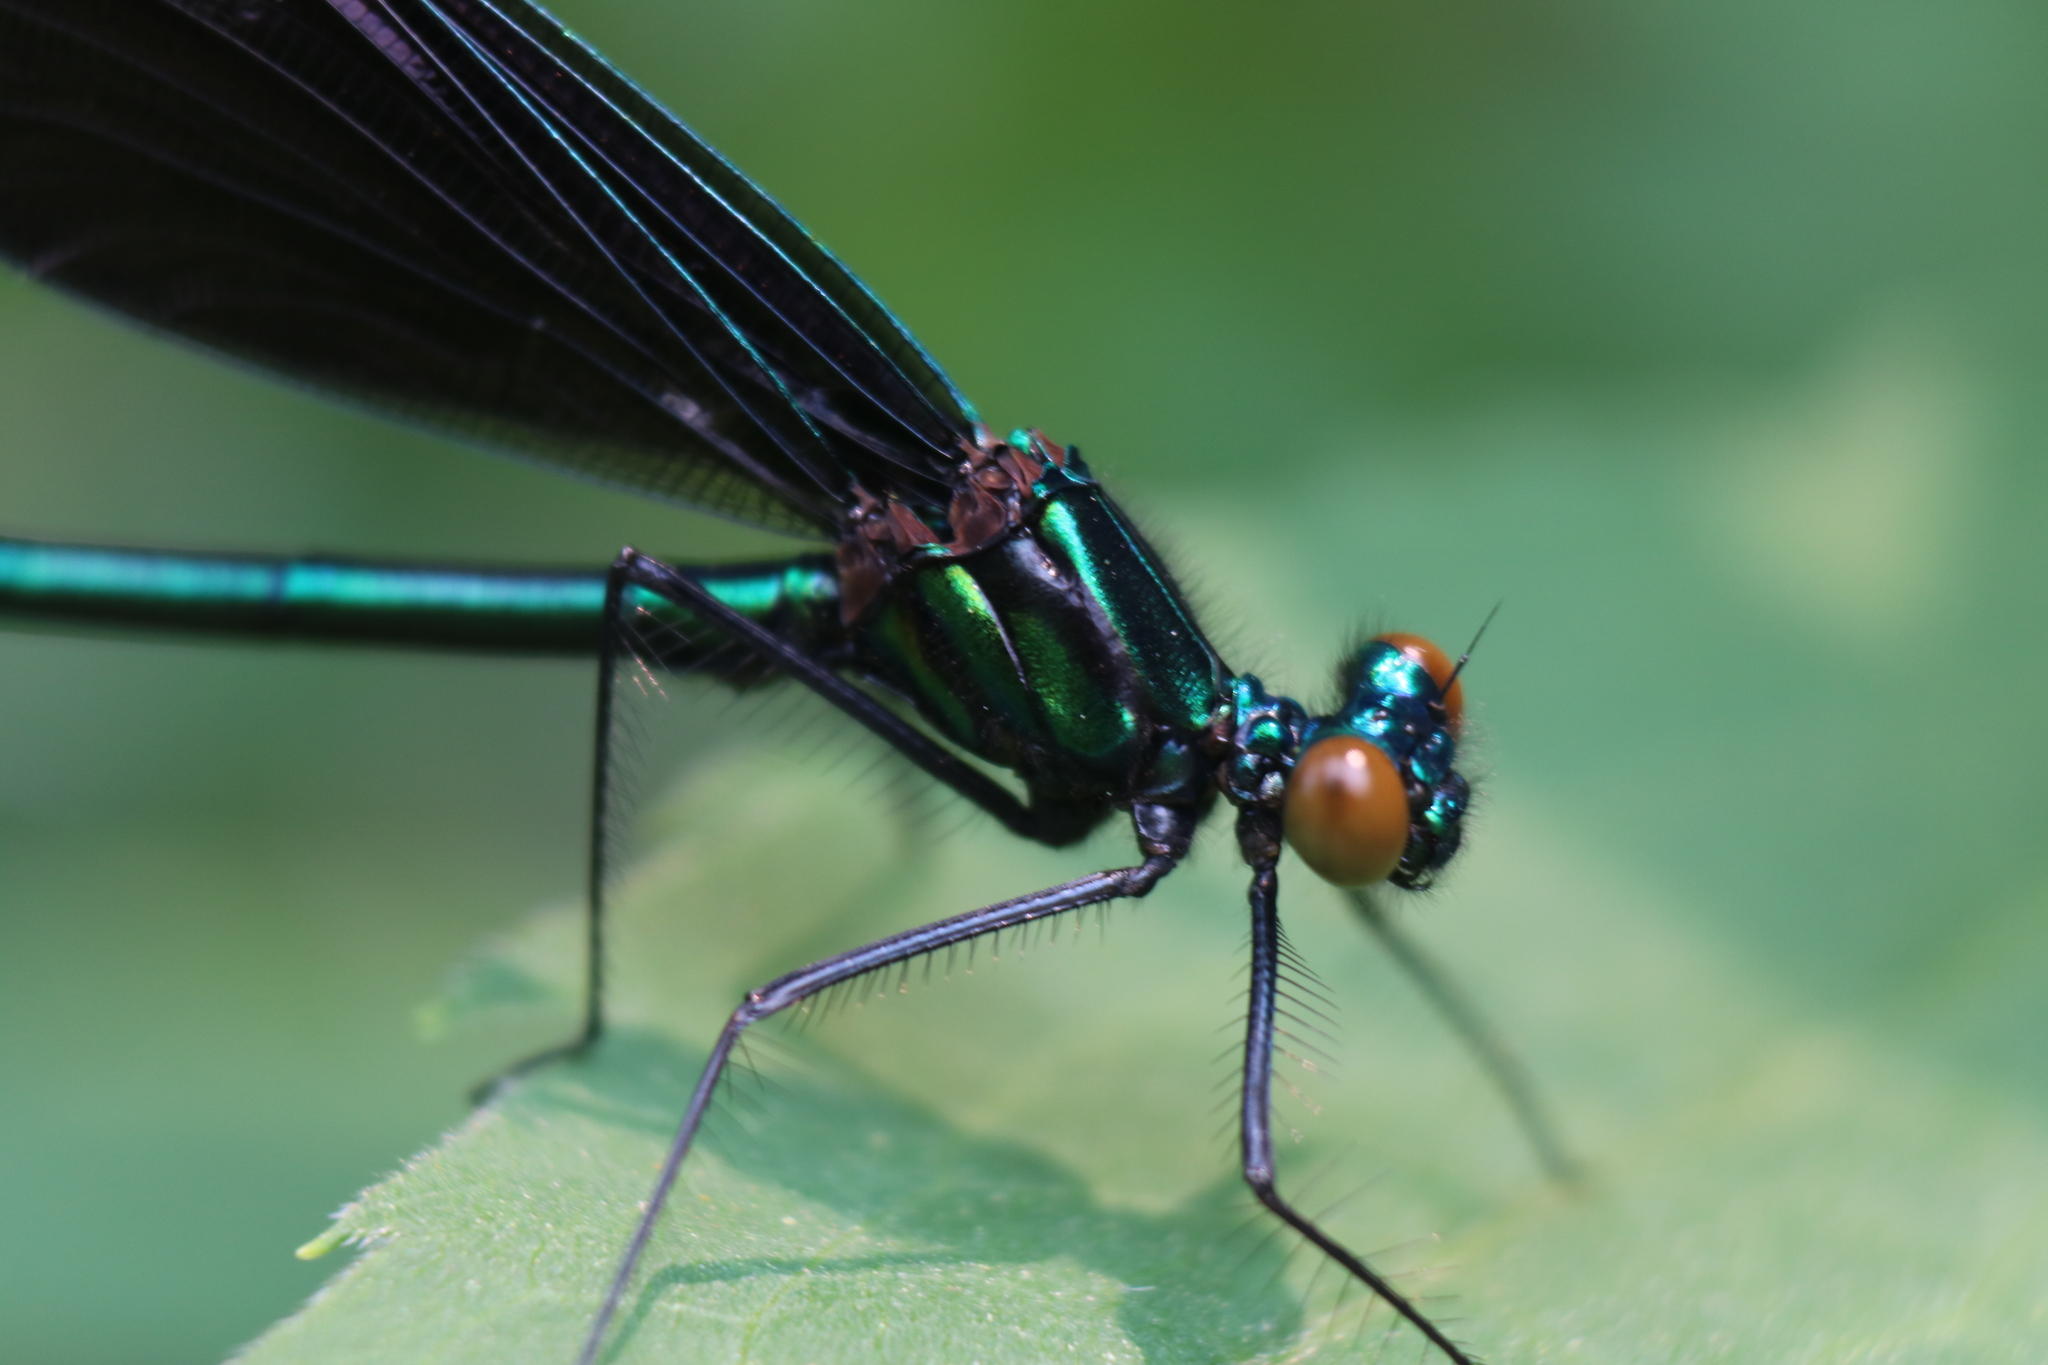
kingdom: Animalia
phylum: Arthropoda
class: Insecta
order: Odonata
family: Calopterygidae
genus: Calopteryx
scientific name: Calopteryx maculata
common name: Ebony jewelwing
